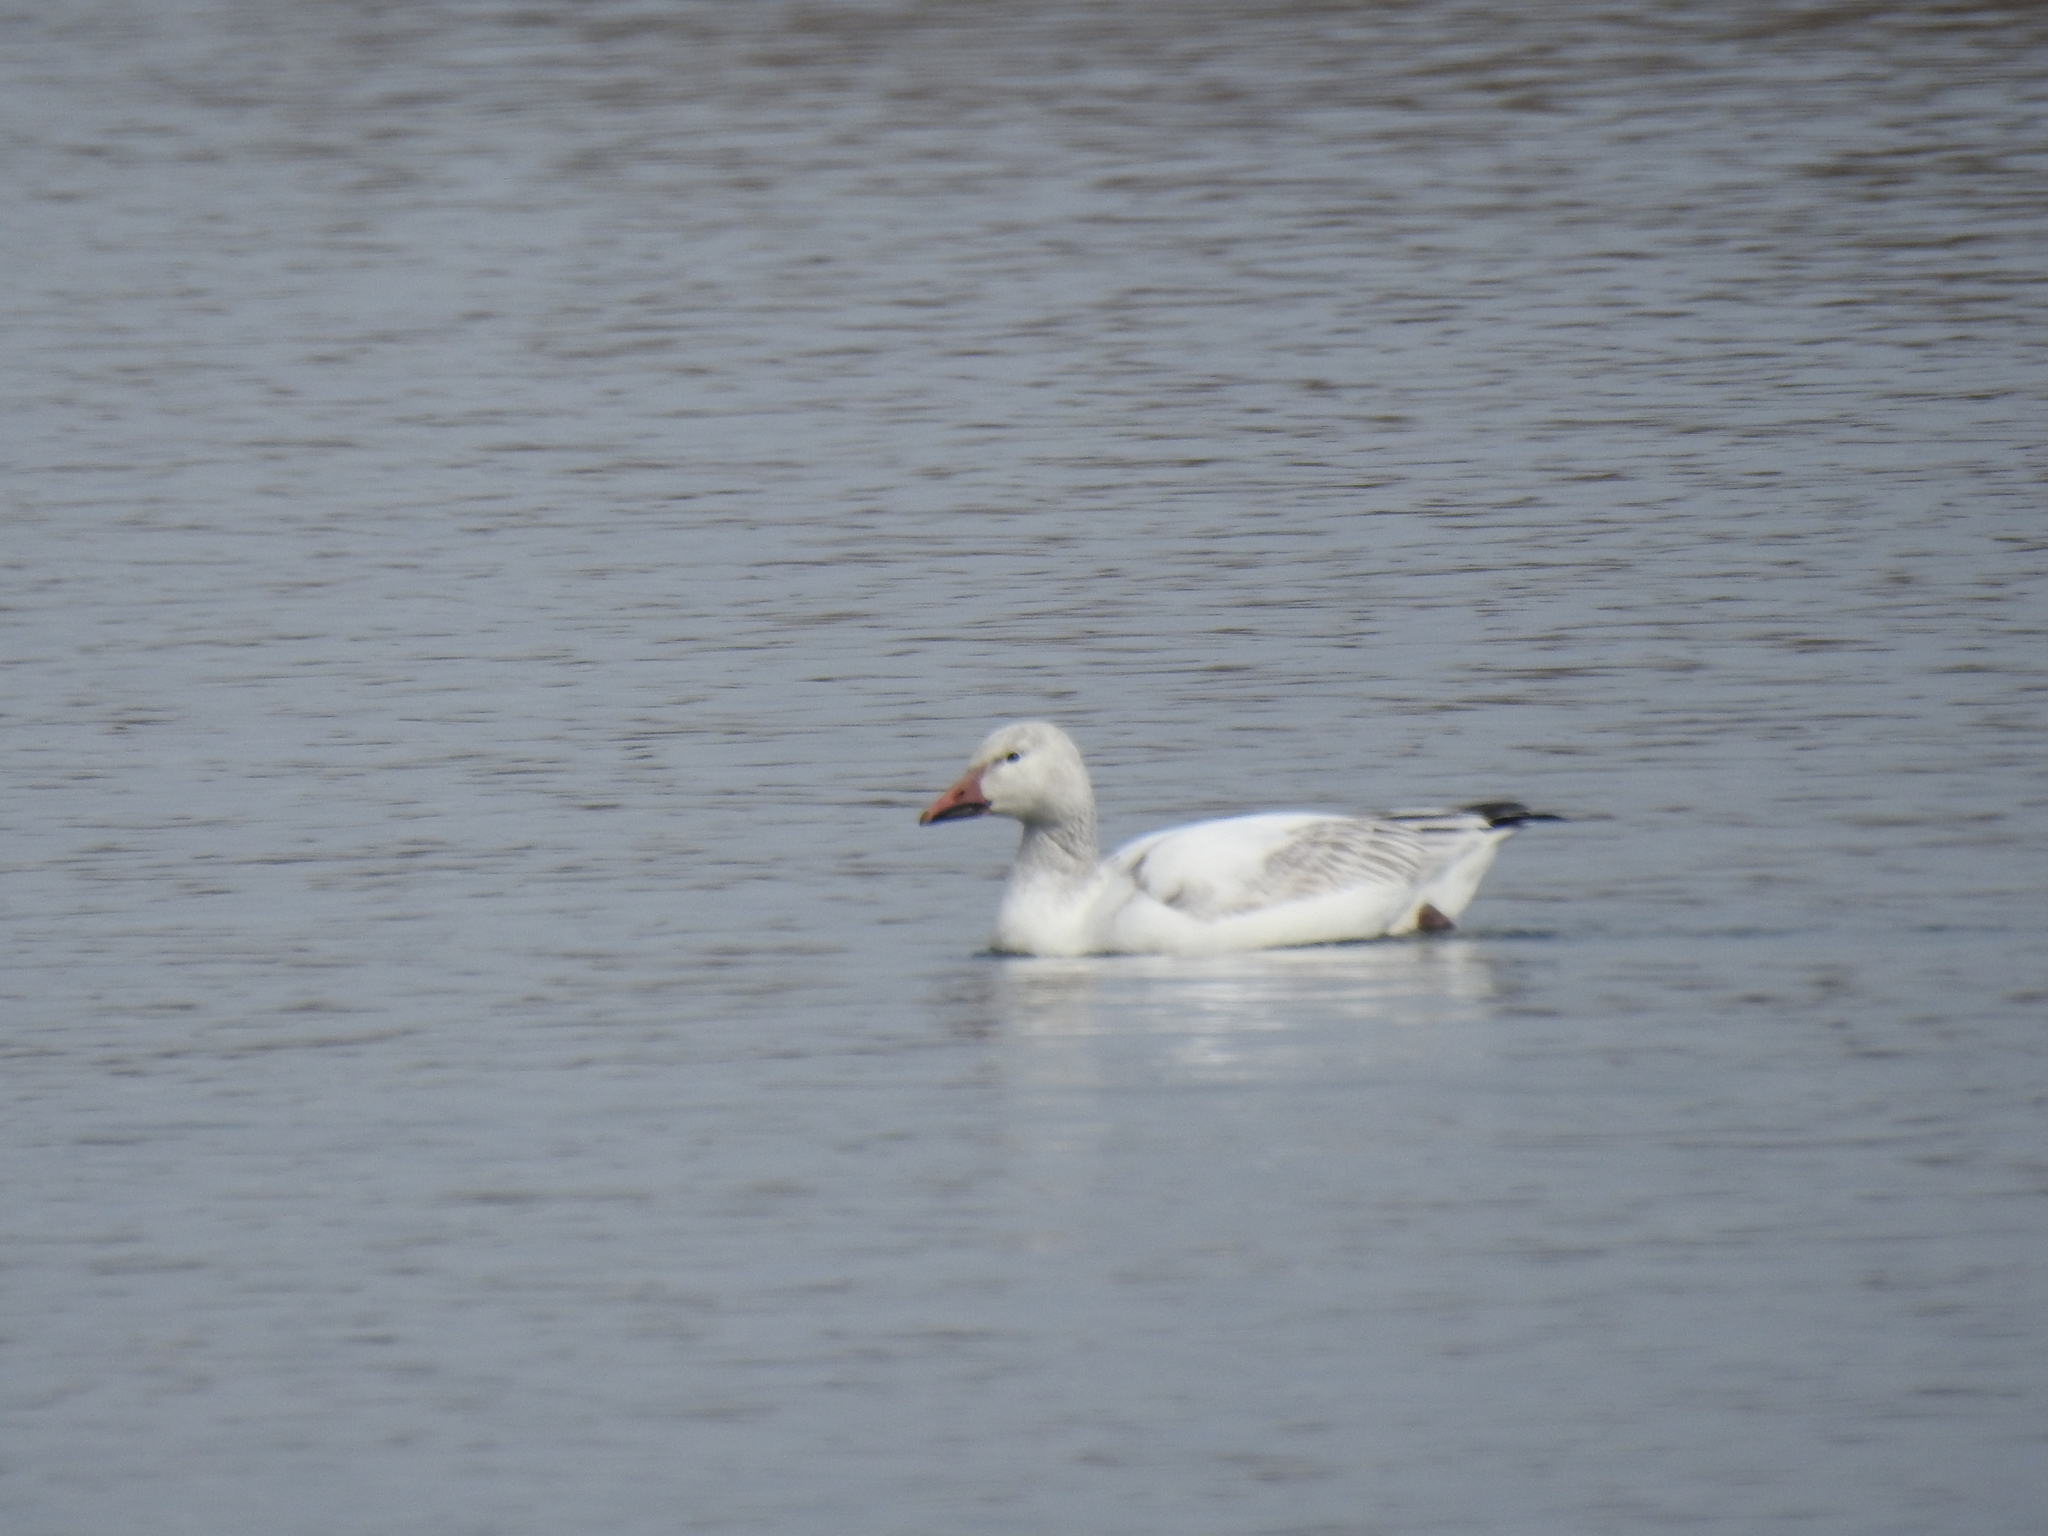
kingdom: Animalia
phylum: Chordata
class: Aves
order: Anseriformes
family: Anatidae
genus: Anser
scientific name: Anser caerulescens
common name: Snow goose
